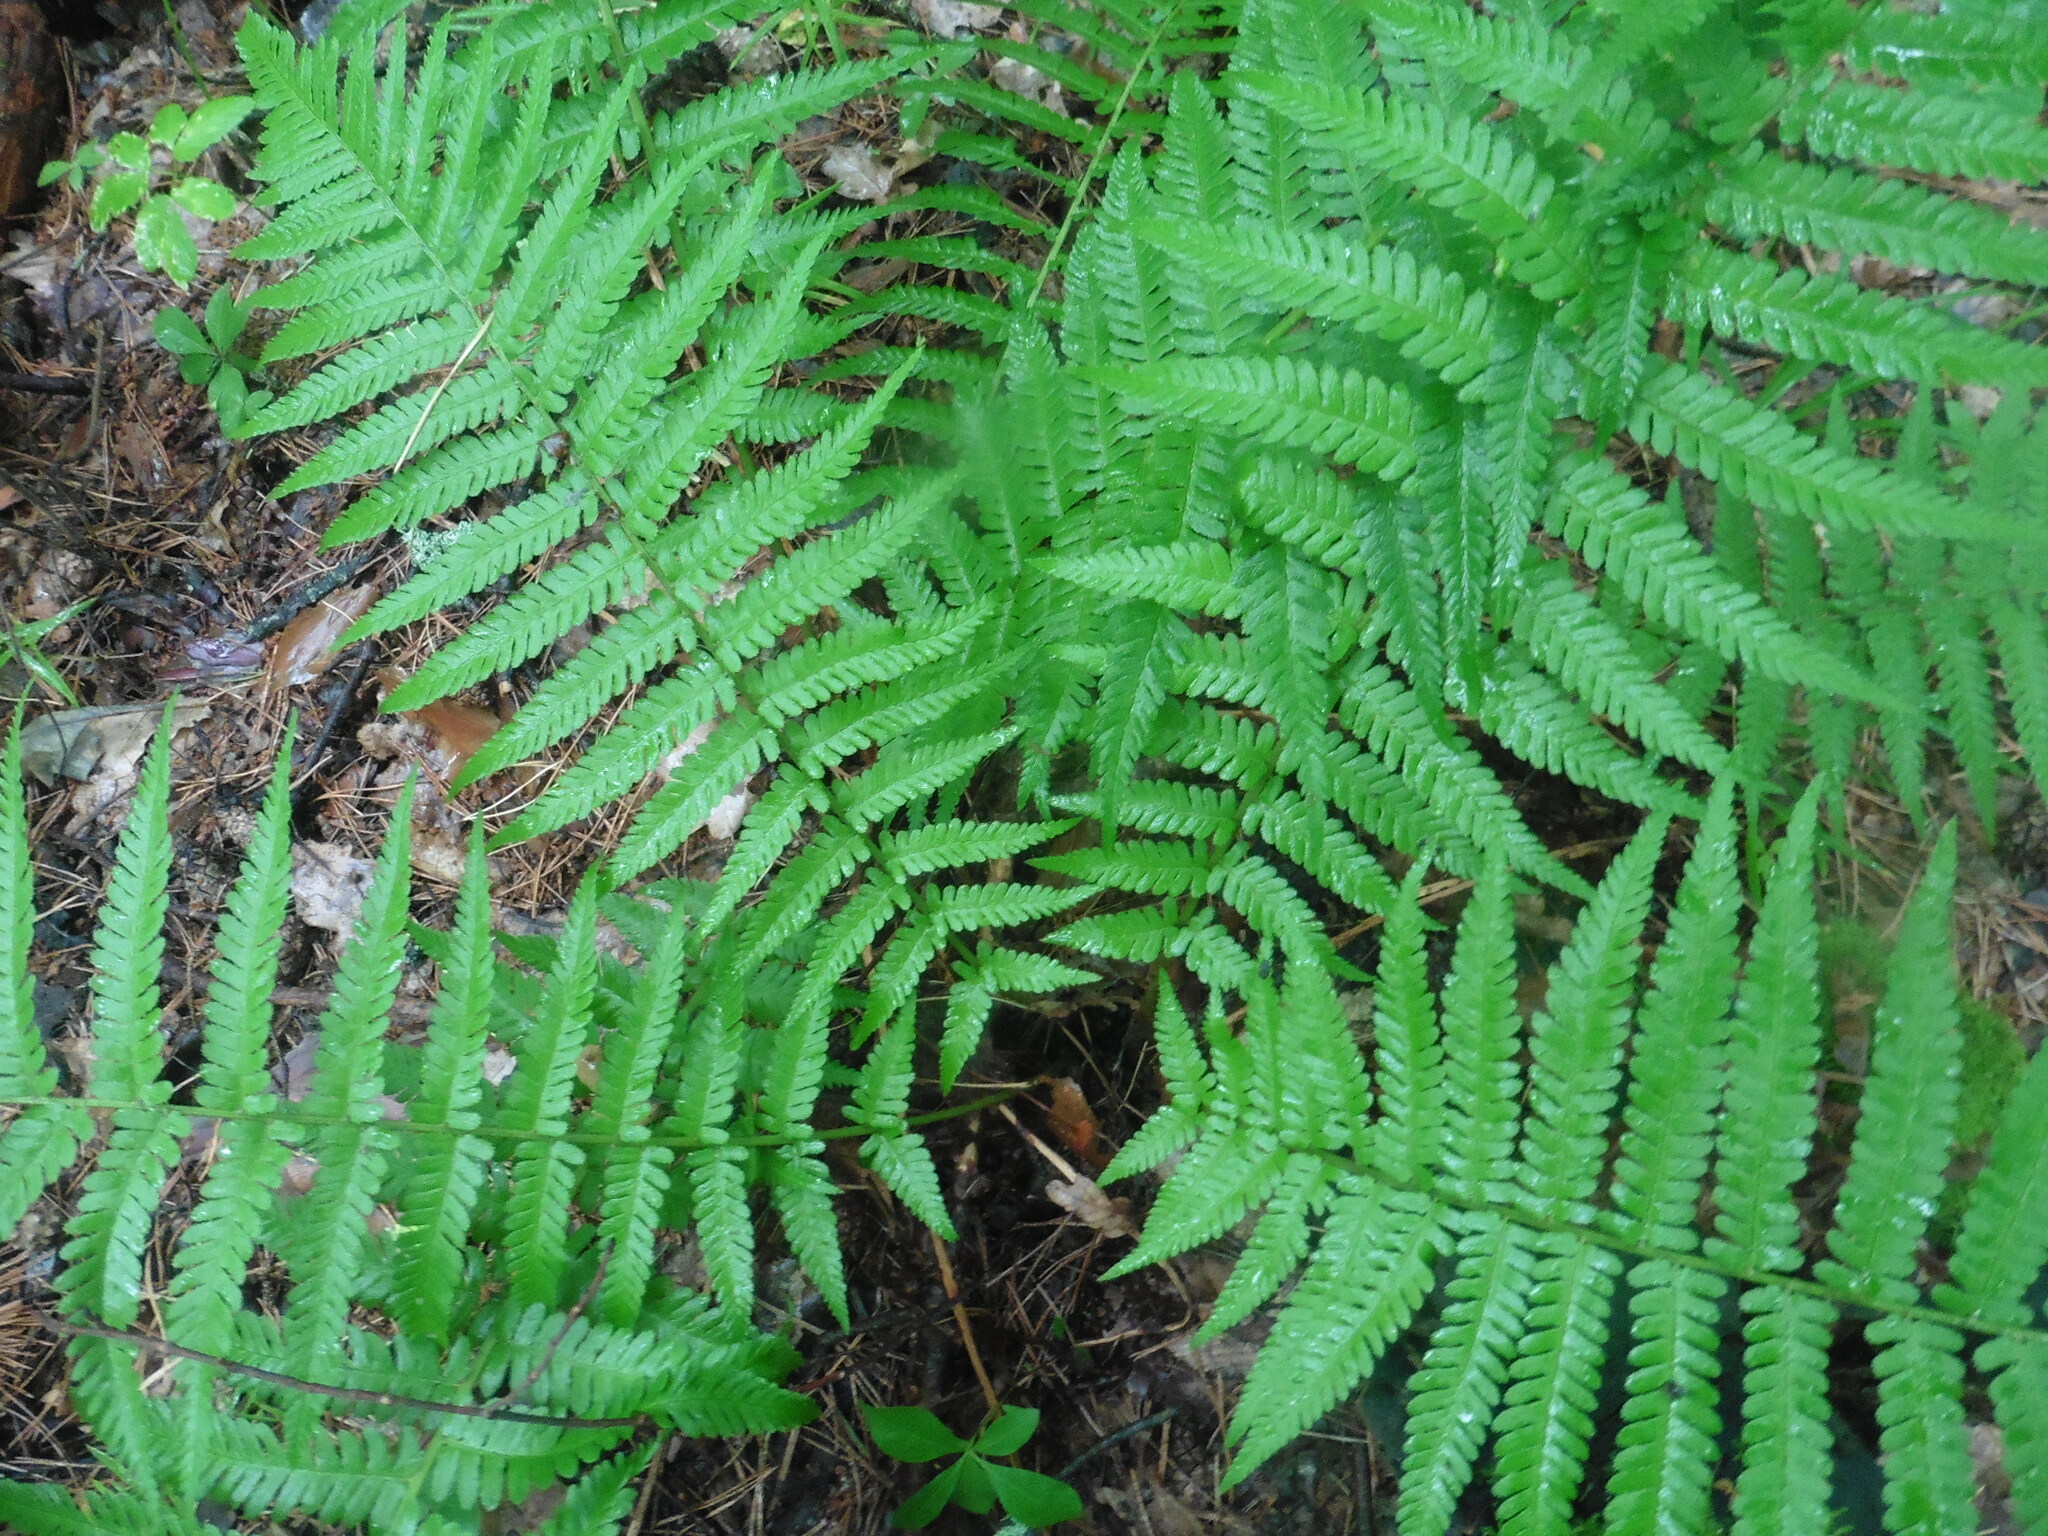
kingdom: Plantae
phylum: Tracheophyta
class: Polypodiopsida
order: Polypodiales
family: Dryopteridaceae
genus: Dryopteris
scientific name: Dryopteris filix-mas
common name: Male fern
